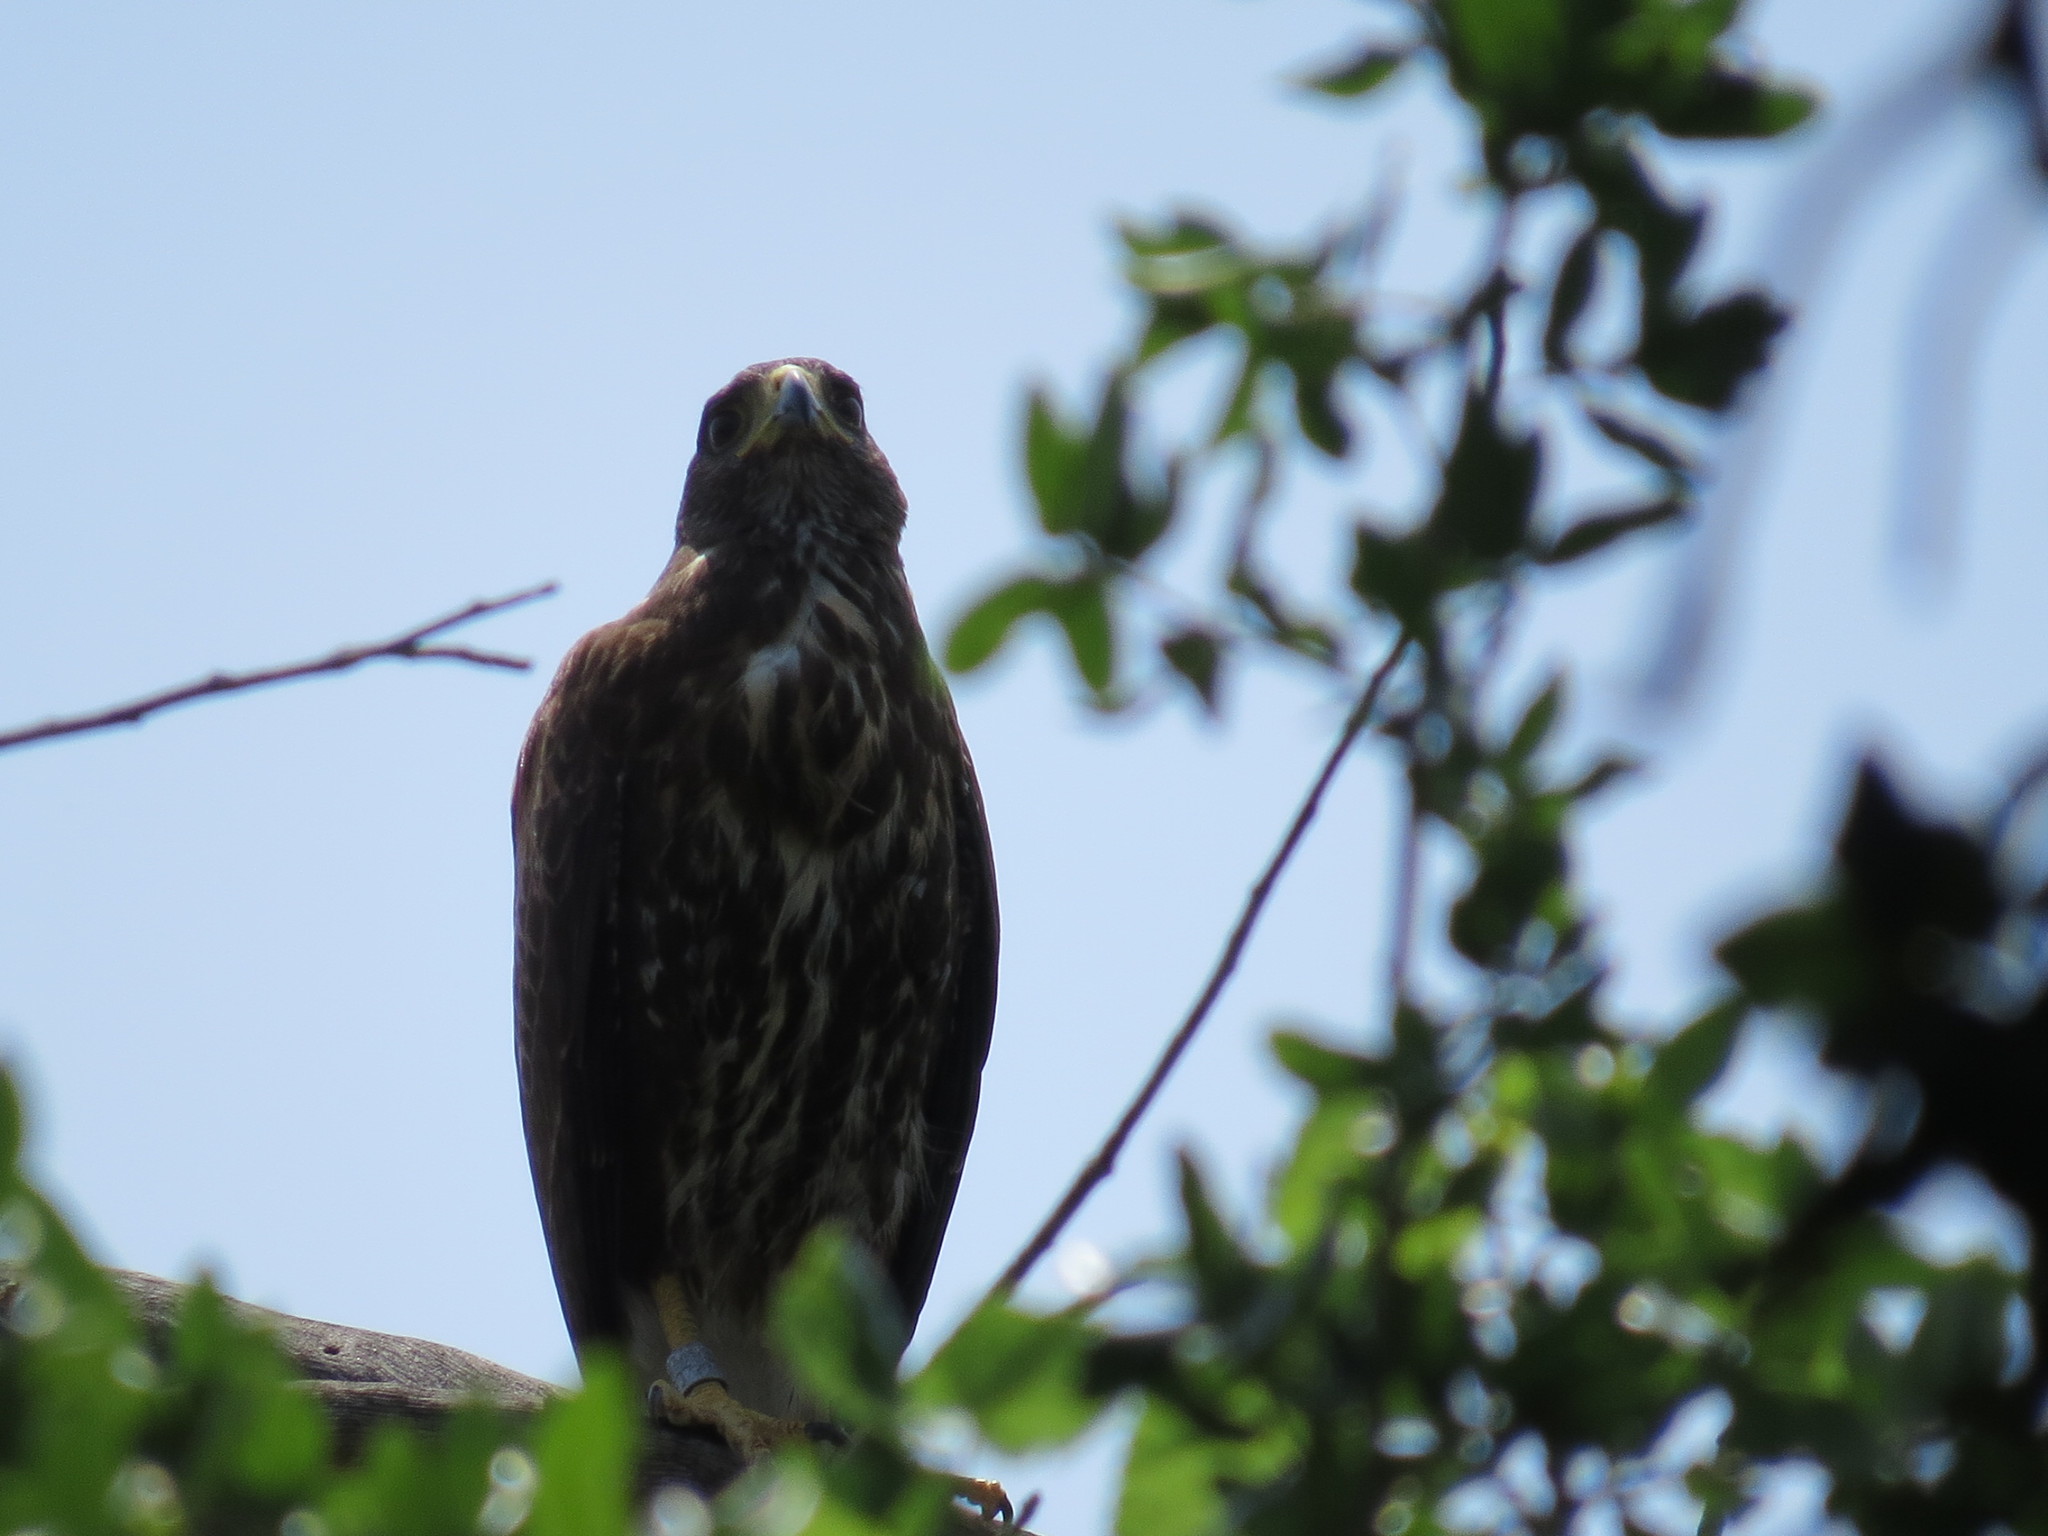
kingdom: Animalia
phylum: Chordata
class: Aves
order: Accipitriformes
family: Accipitridae
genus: Parabuteo
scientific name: Parabuteo unicinctus
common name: Harris's hawk
